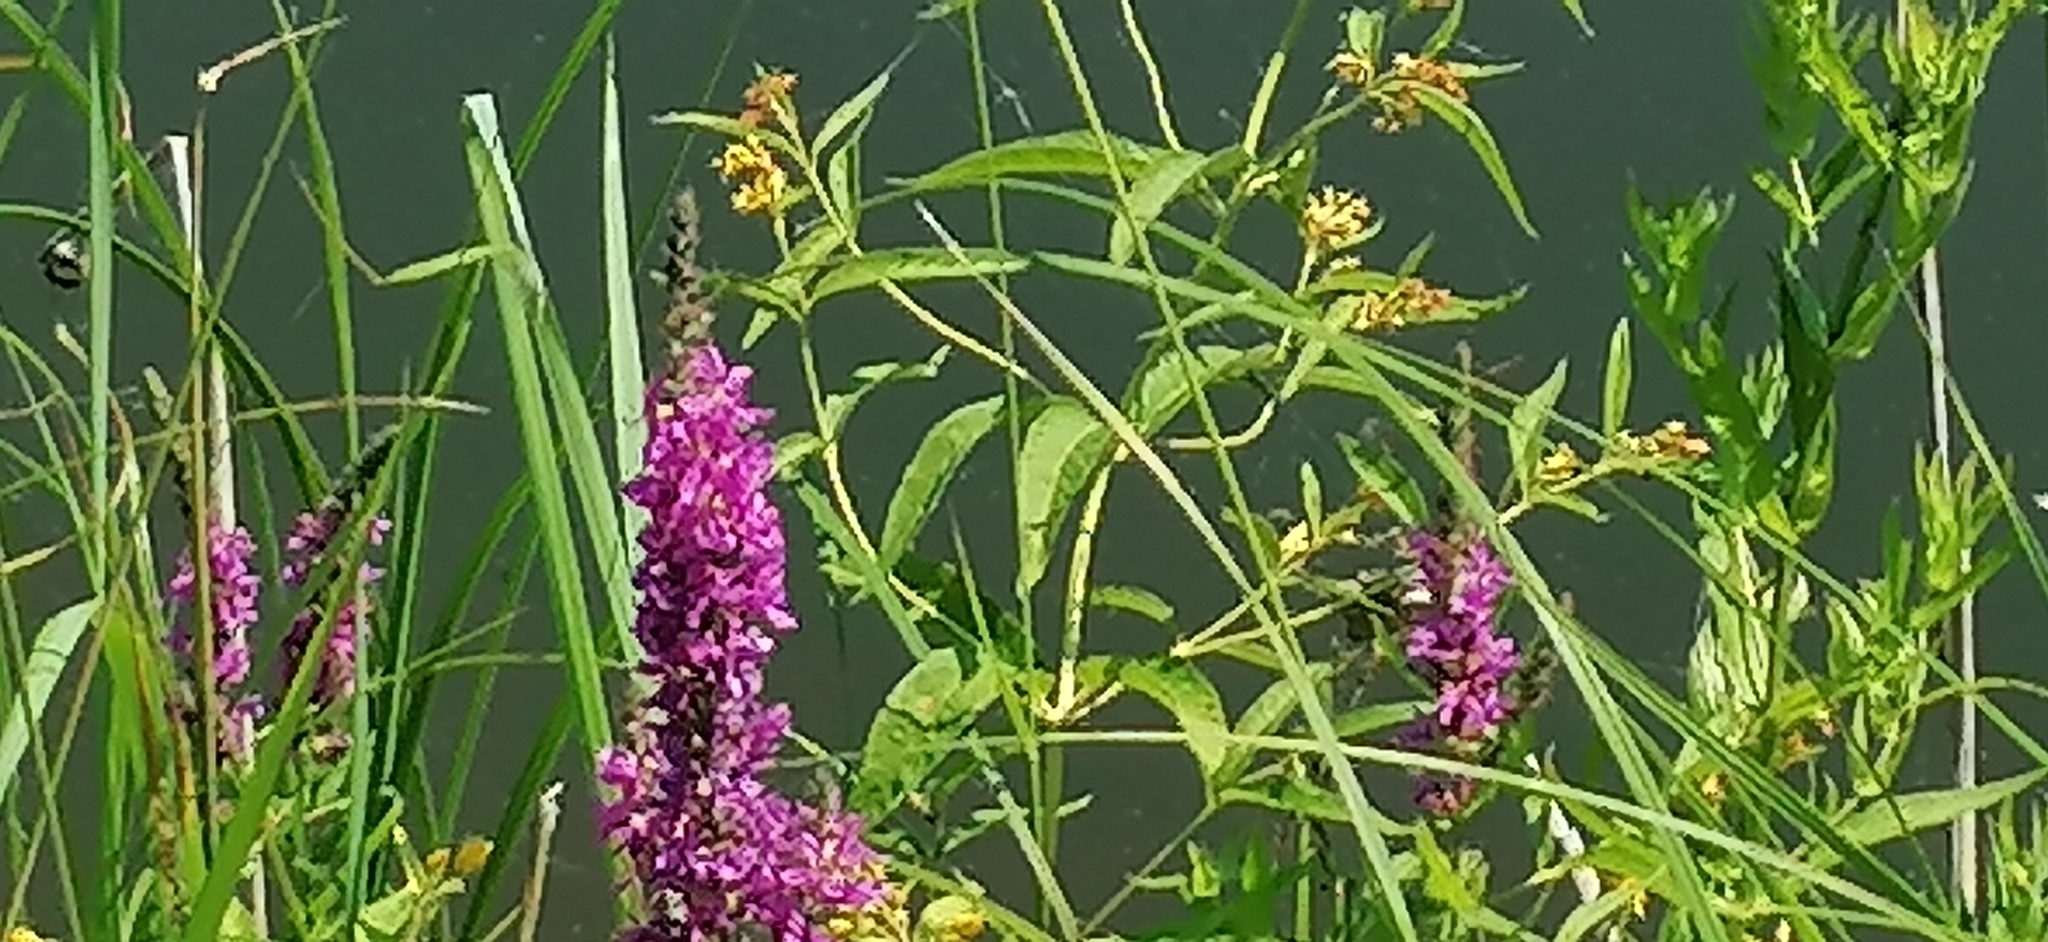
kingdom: Plantae
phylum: Tracheophyta
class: Magnoliopsida
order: Myrtales
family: Lythraceae
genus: Lythrum
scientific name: Lythrum salicaria
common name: Purple loosestrife
